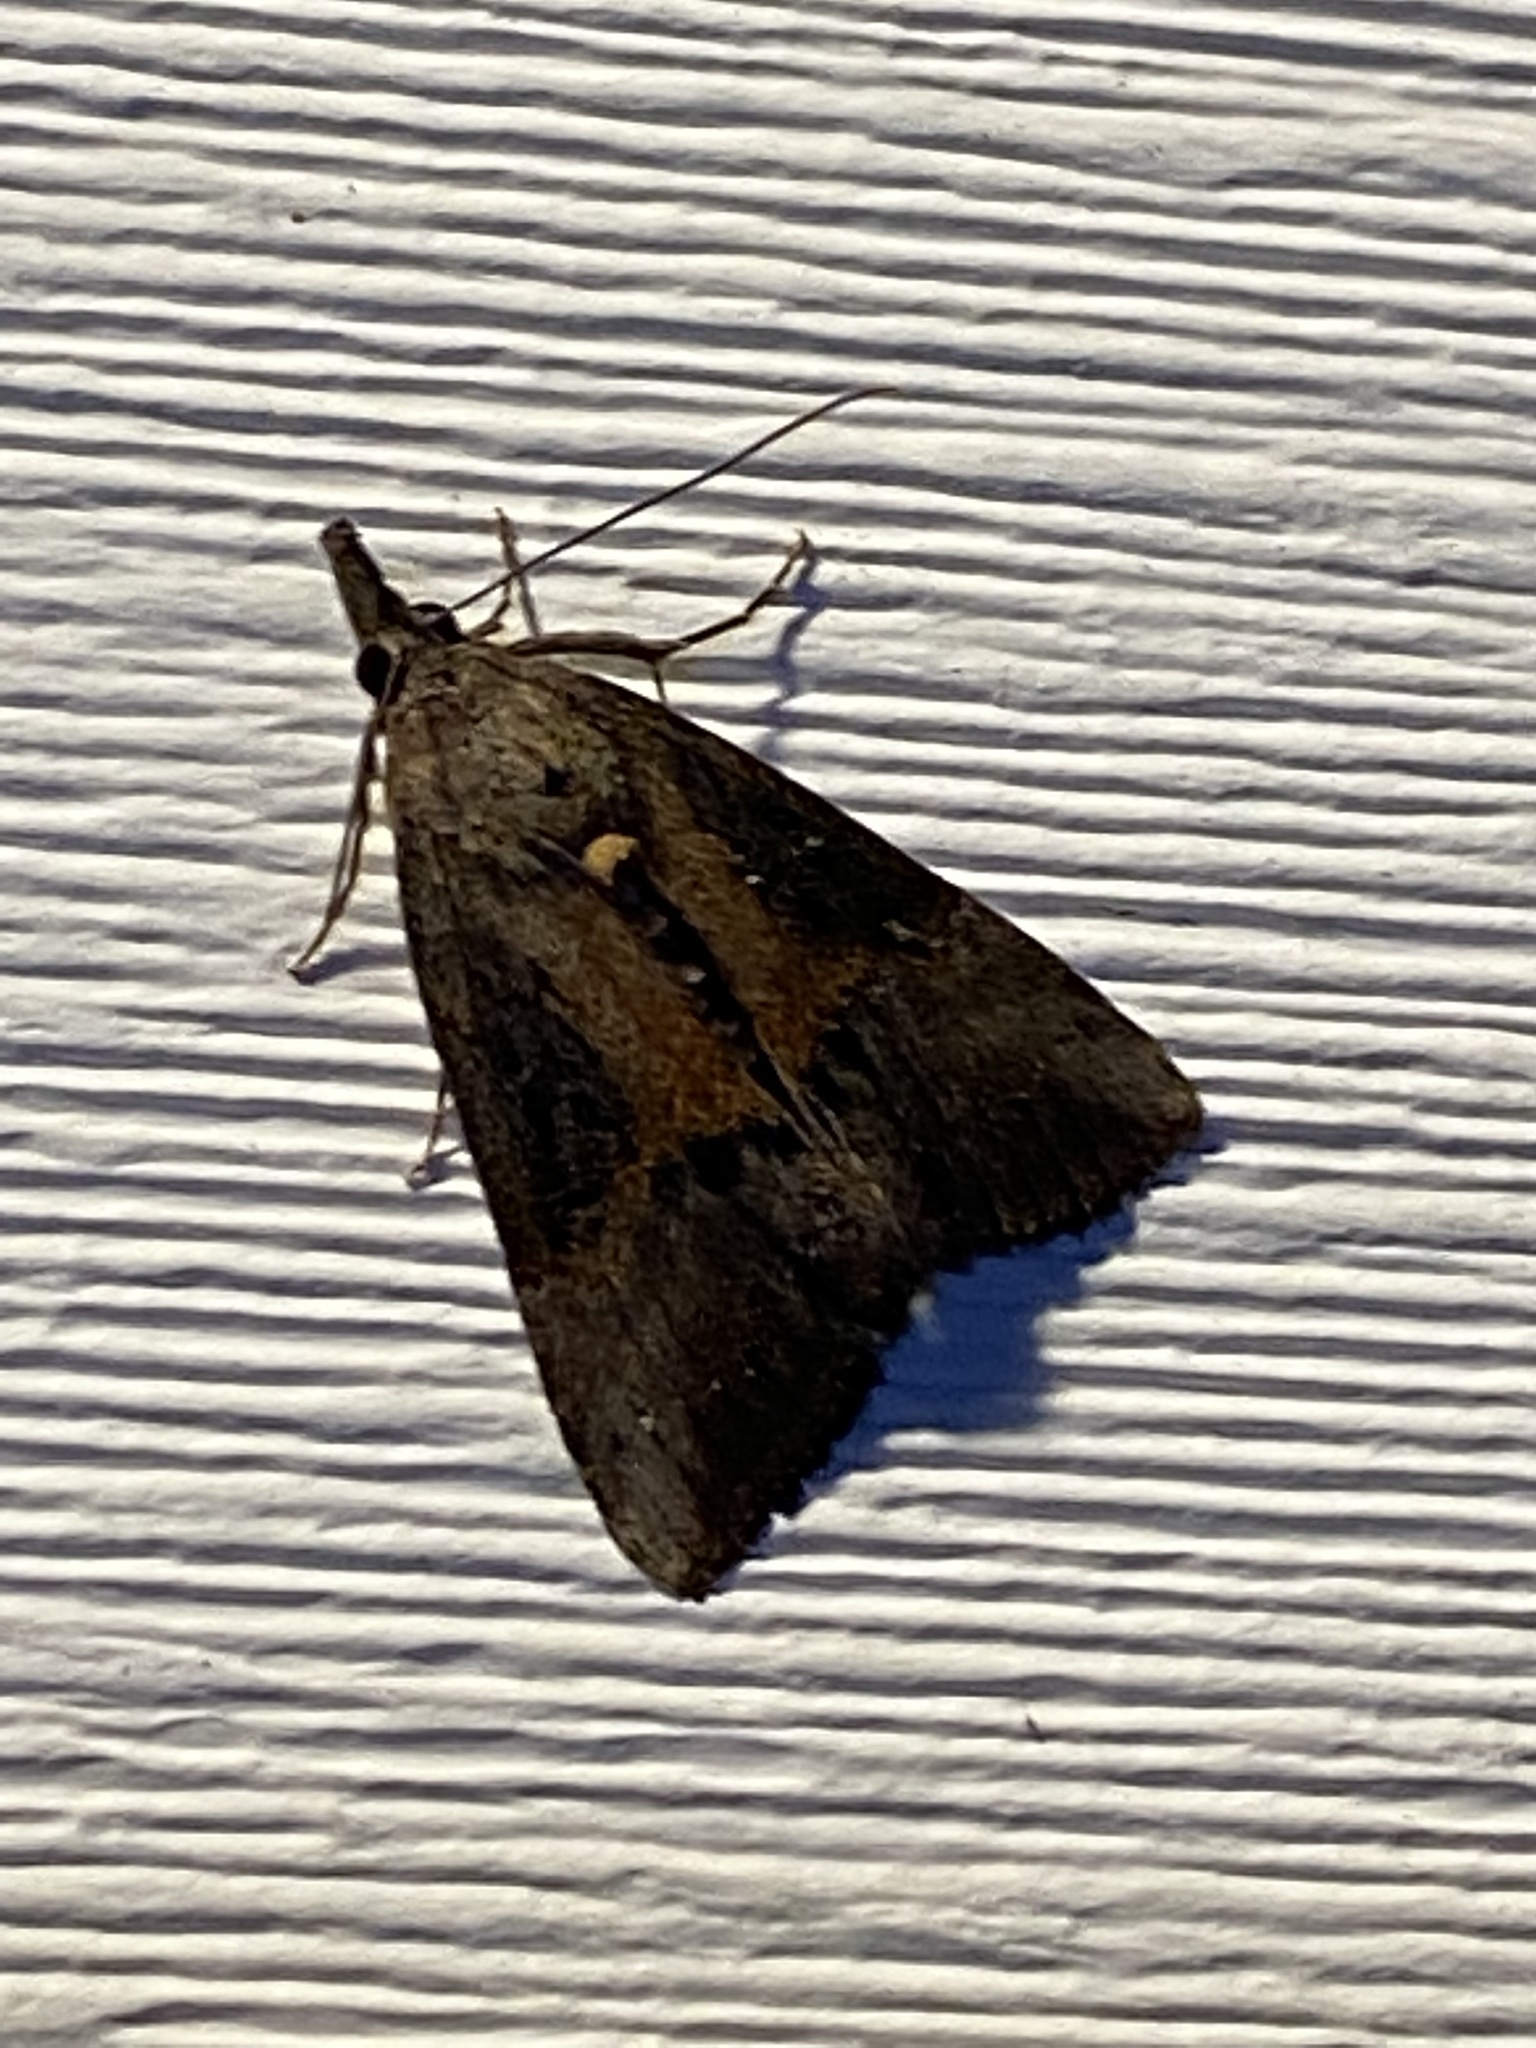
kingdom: Animalia
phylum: Arthropoda
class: Insecta
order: Lepidoptera
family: Erebidae
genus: Hypena
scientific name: Hypena scabra
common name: Green cloverworm
